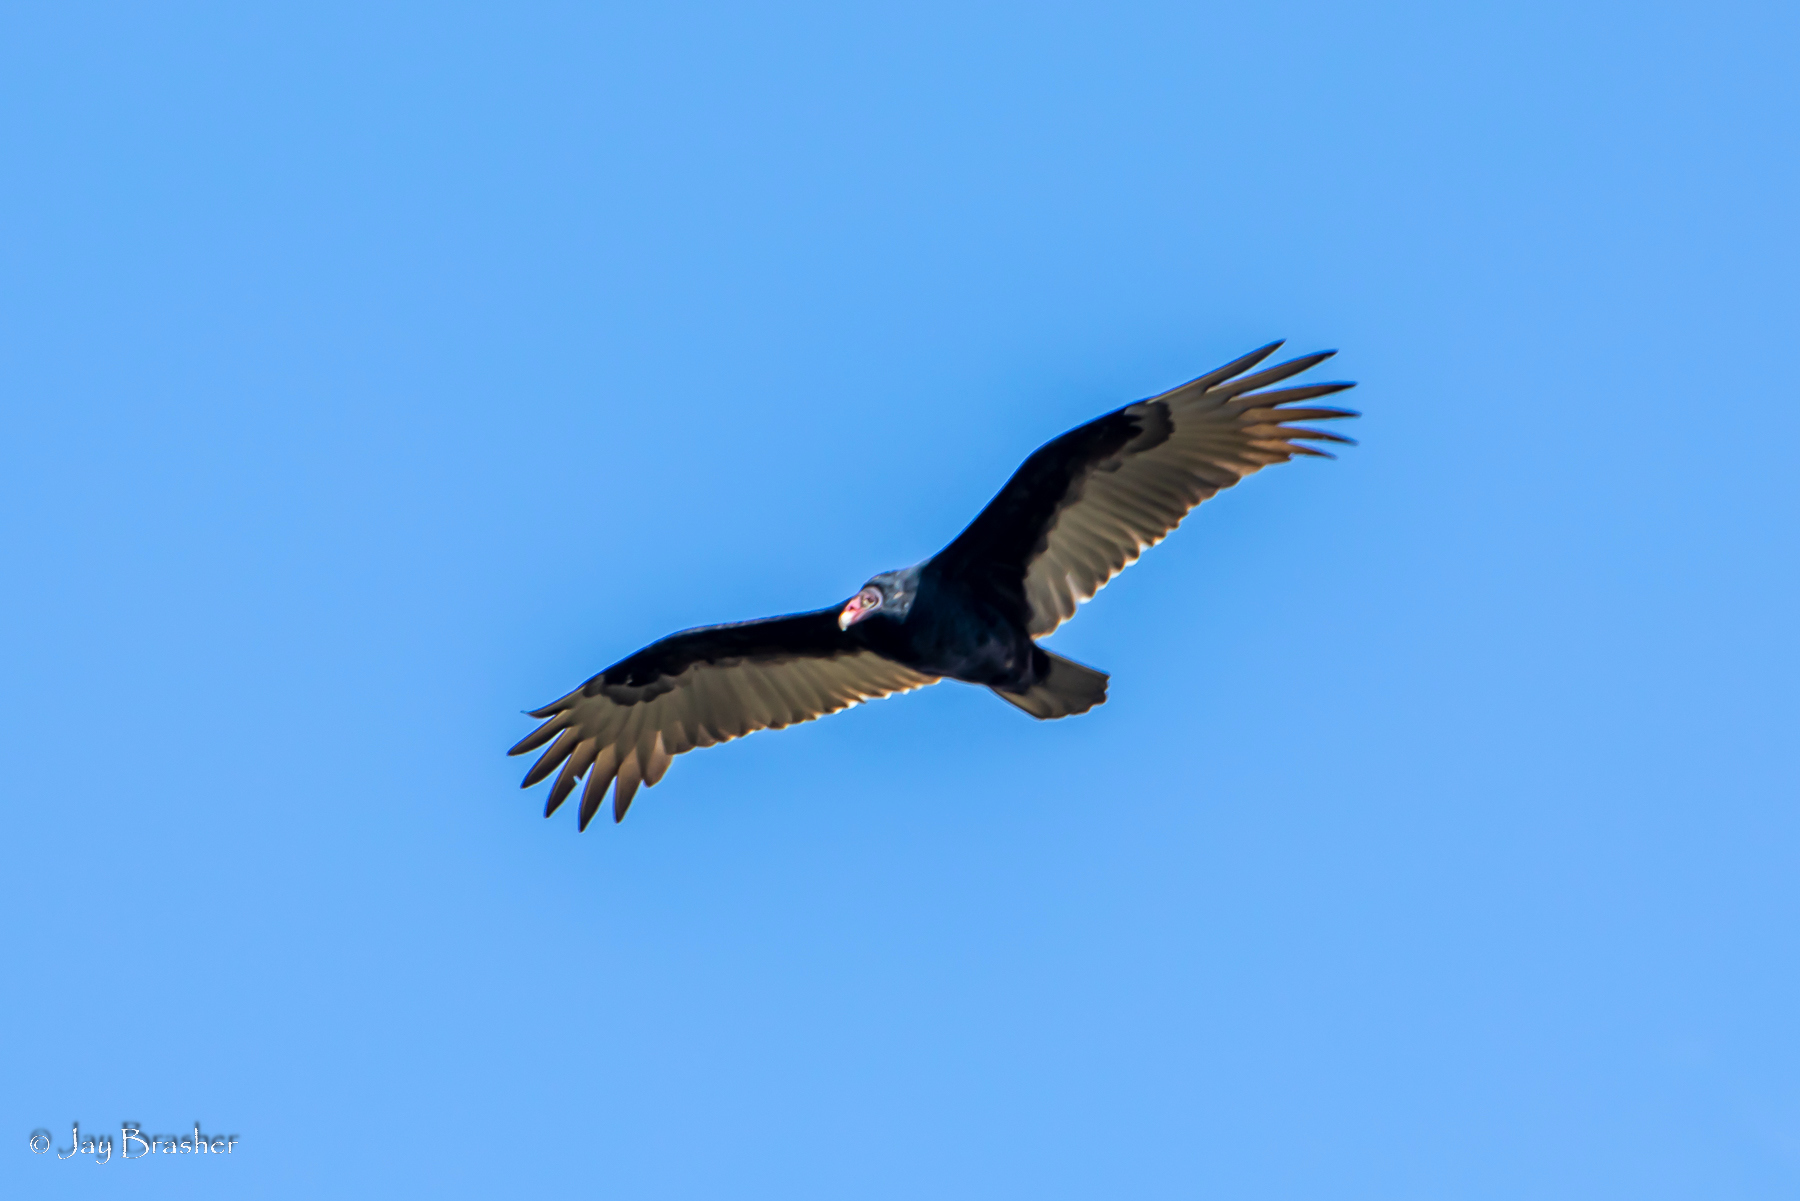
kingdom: Animalia
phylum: Chordata
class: Aves
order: Accipitriformes
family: Cathartidae
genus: Cathartes
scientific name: Cathartes aura
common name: Turkey vulture
